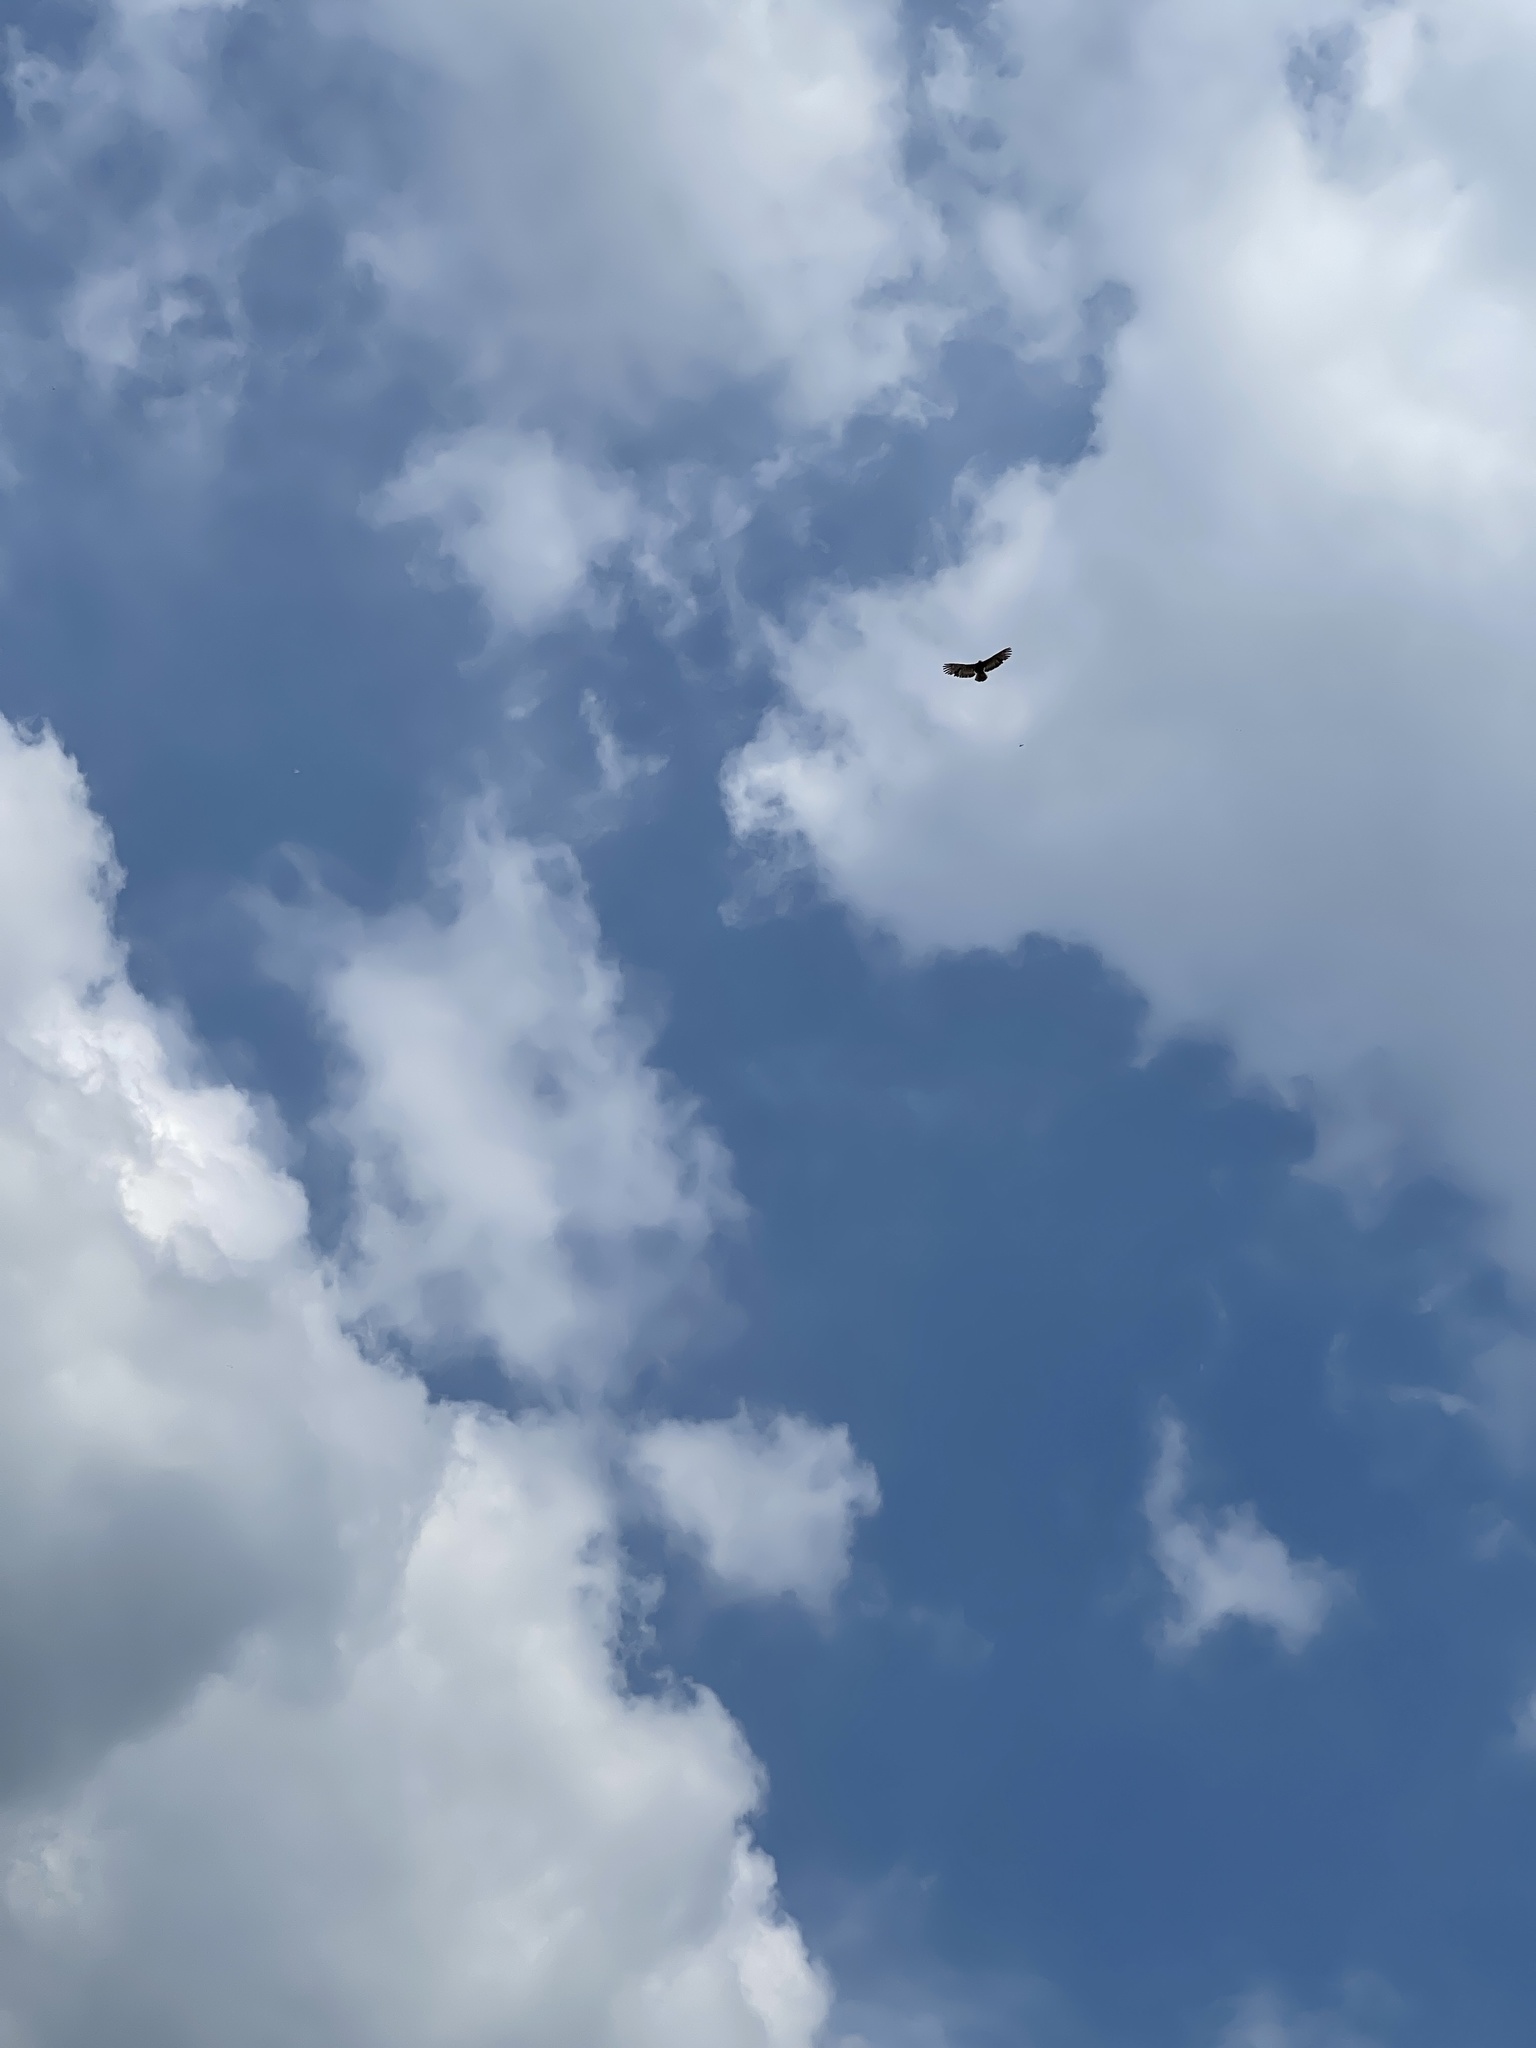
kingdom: Animalia
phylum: Chordata
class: Aves
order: Accipitriformes
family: Accipitridae
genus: Spilornis
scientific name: Spilornis cheela
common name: Crested serpent eagle
